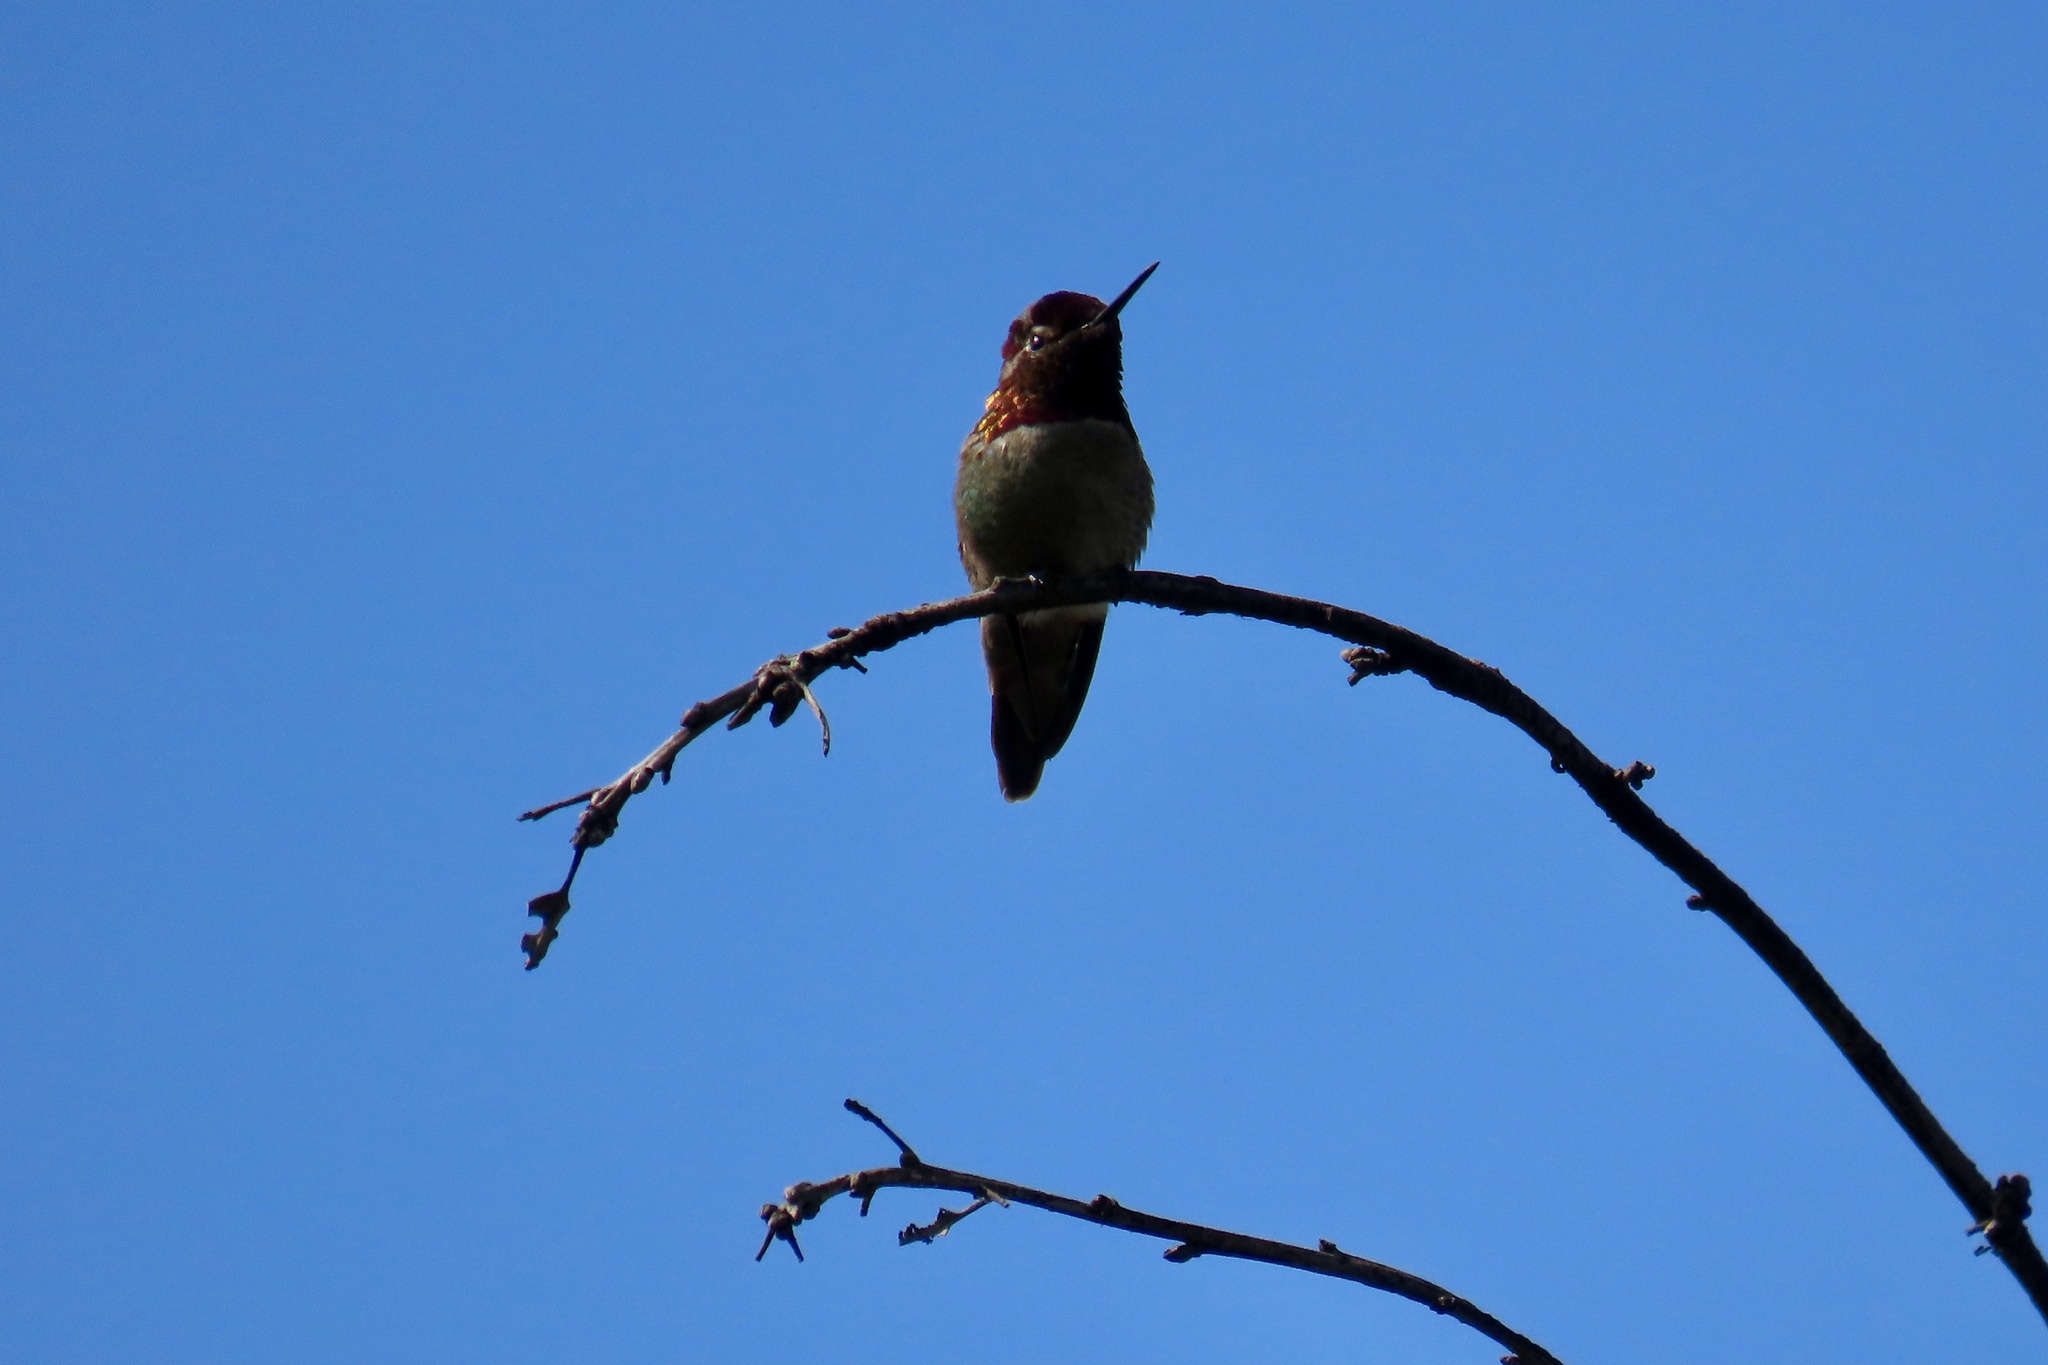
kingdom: Animalia
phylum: Chordata
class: Aves
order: Apodiformes
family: Trochilidae
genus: Calypte
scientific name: Calypte anna
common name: Anna's hummingbird
